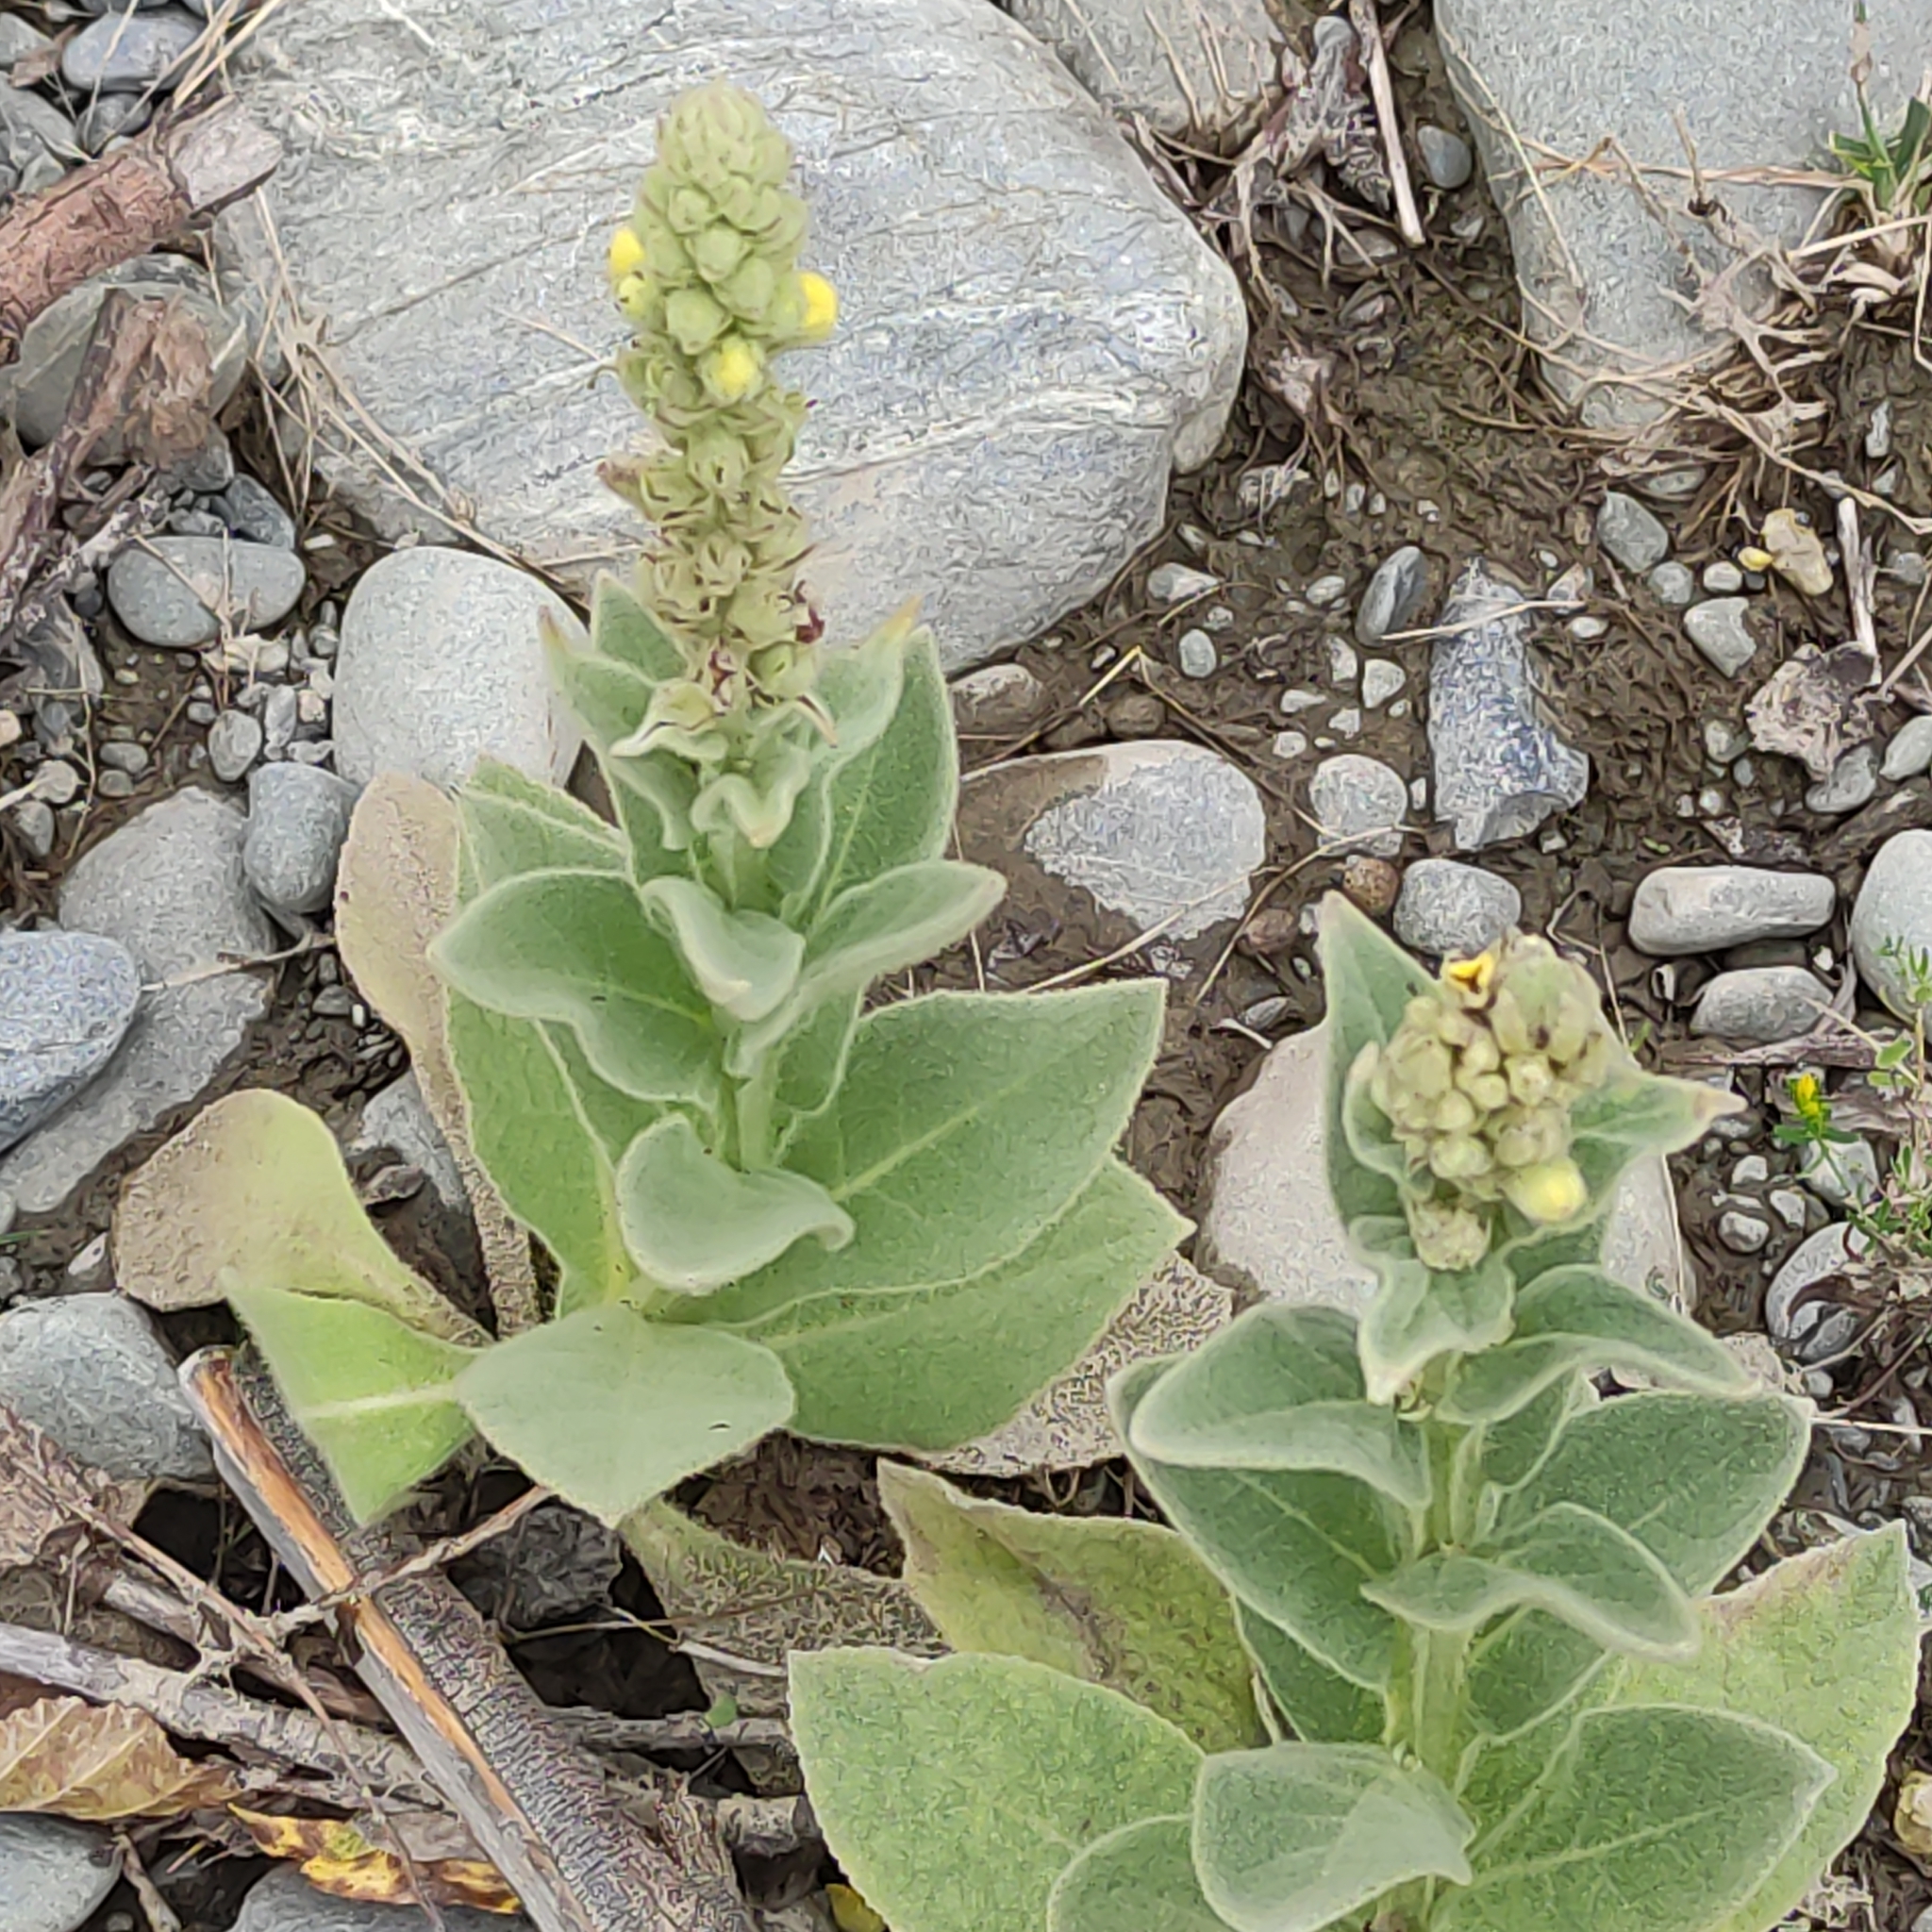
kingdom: Plantae
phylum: Tracheophyta
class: Magnoliopsida
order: Lamiales
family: Scrophulariaceae
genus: Verbascum
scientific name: Verbascum thapsus
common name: Common mullein
